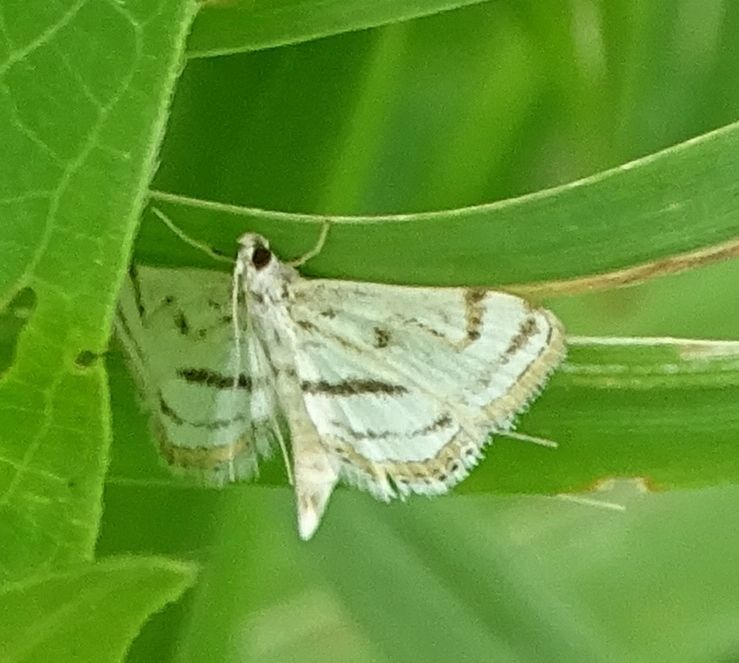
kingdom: Animalia
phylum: Arthropoda
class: Insecta
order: Lepidoptera
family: Crambidae
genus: Parapoynx
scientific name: Parapoynx badiusalis
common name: Chestnut-marked pondweed moth
